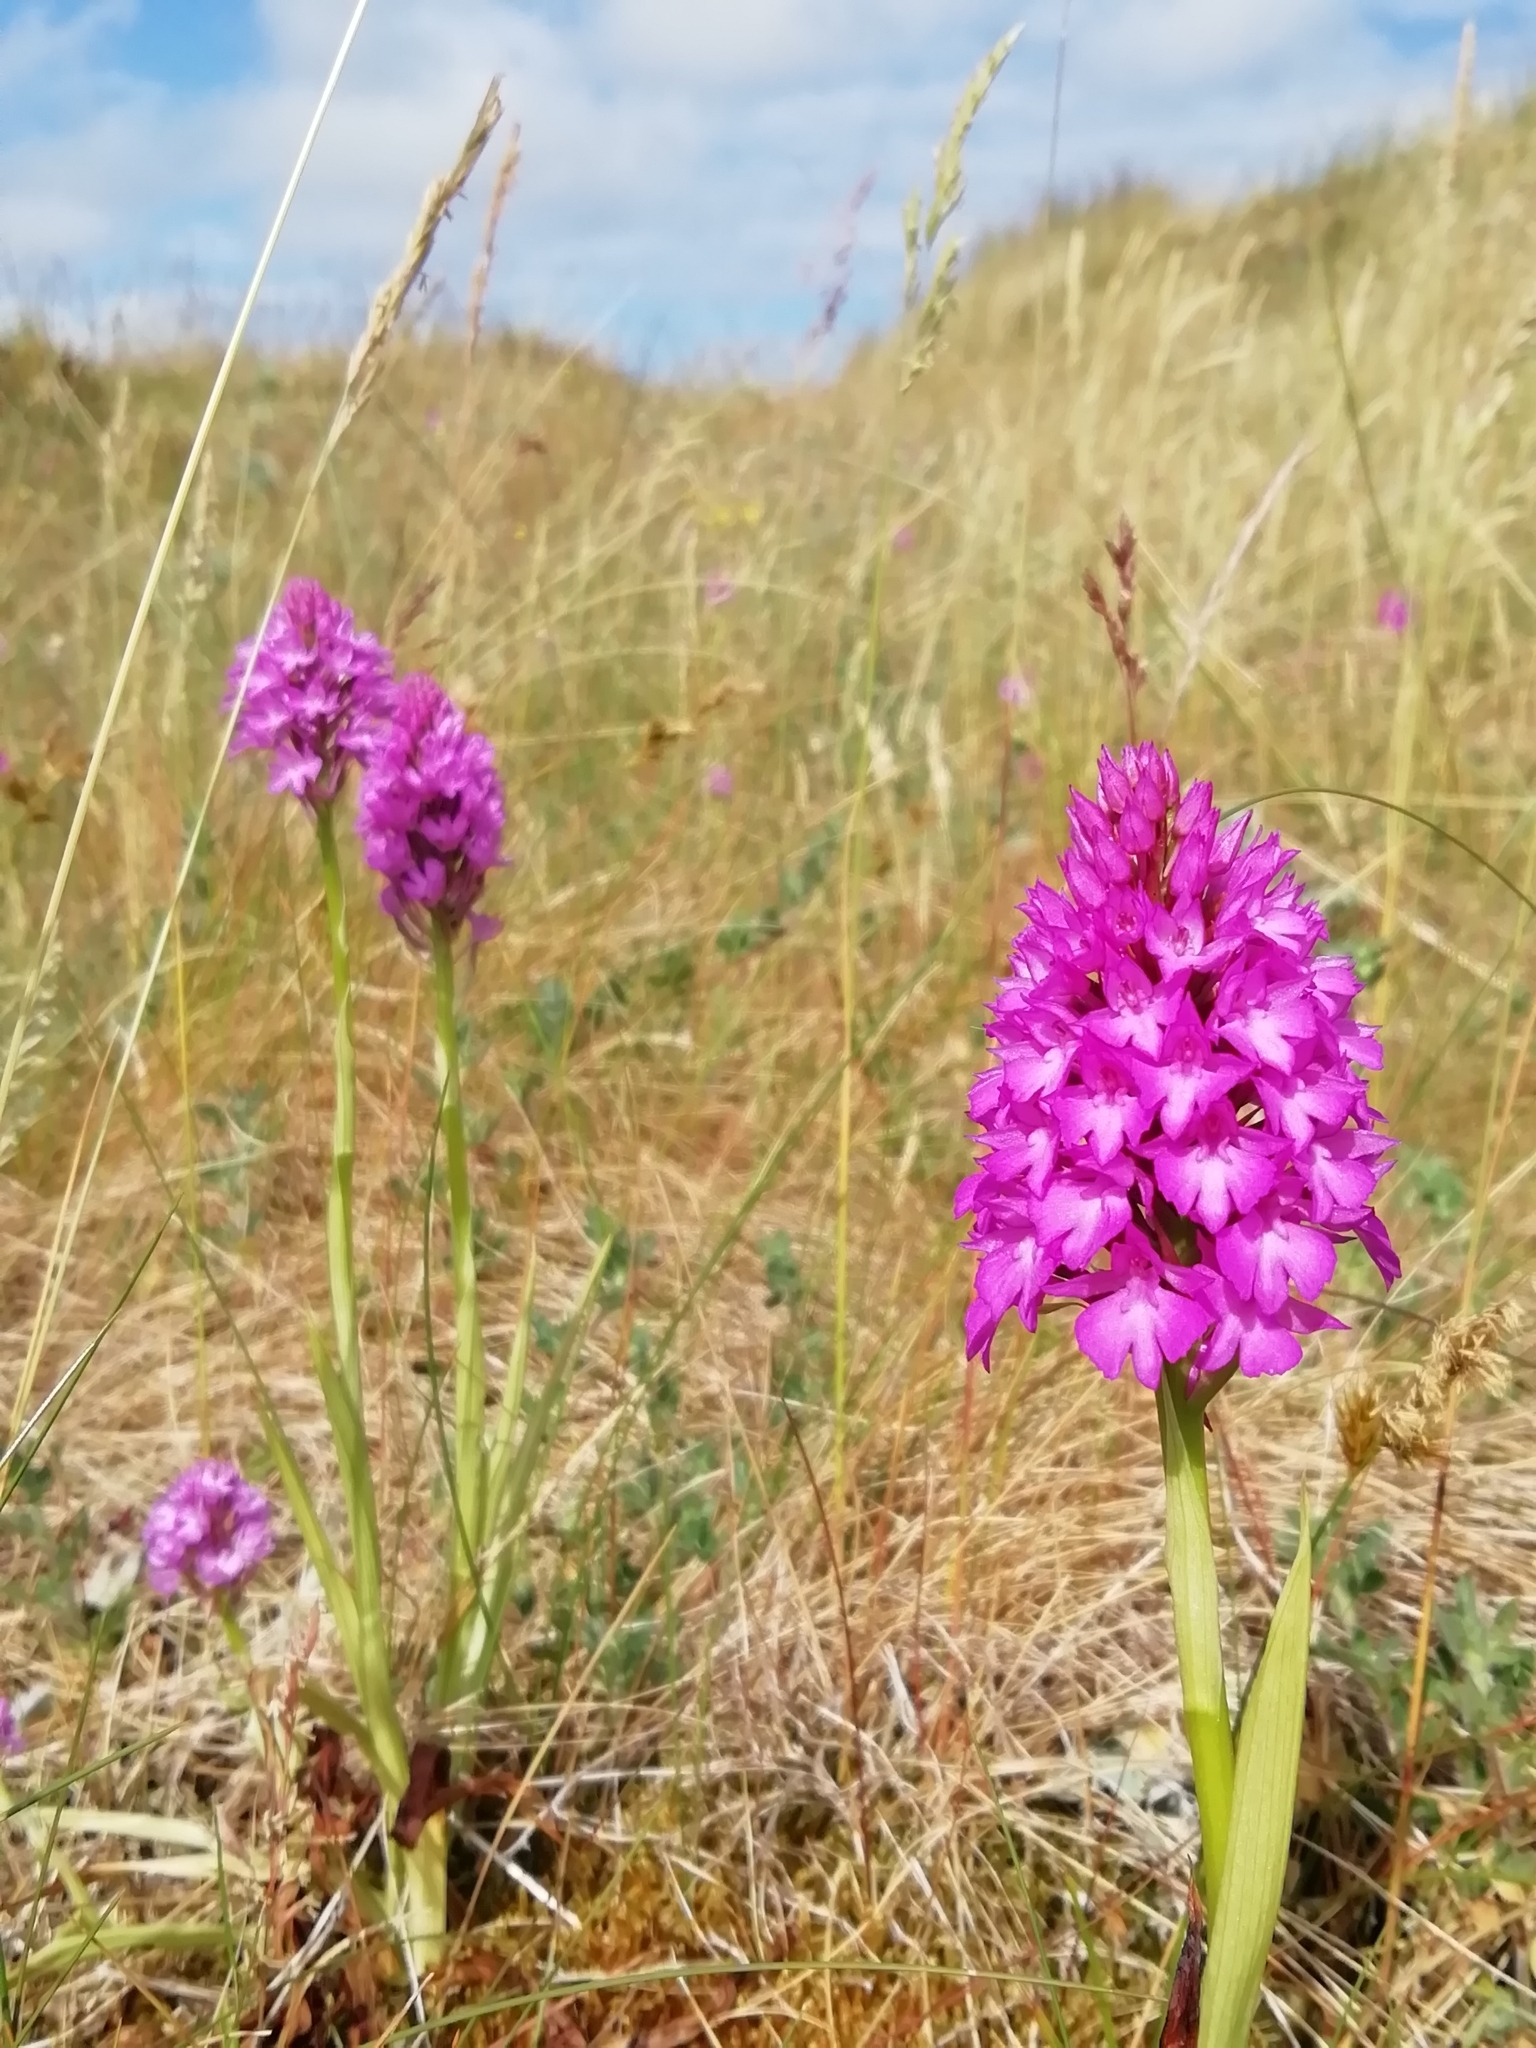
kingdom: Plantae
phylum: Tracheophyta
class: Liliopsida
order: Asparagales
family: Orchidaceae
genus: Anacamptis
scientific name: Anacamptis pyramidalis
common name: Pyramidal orchid
